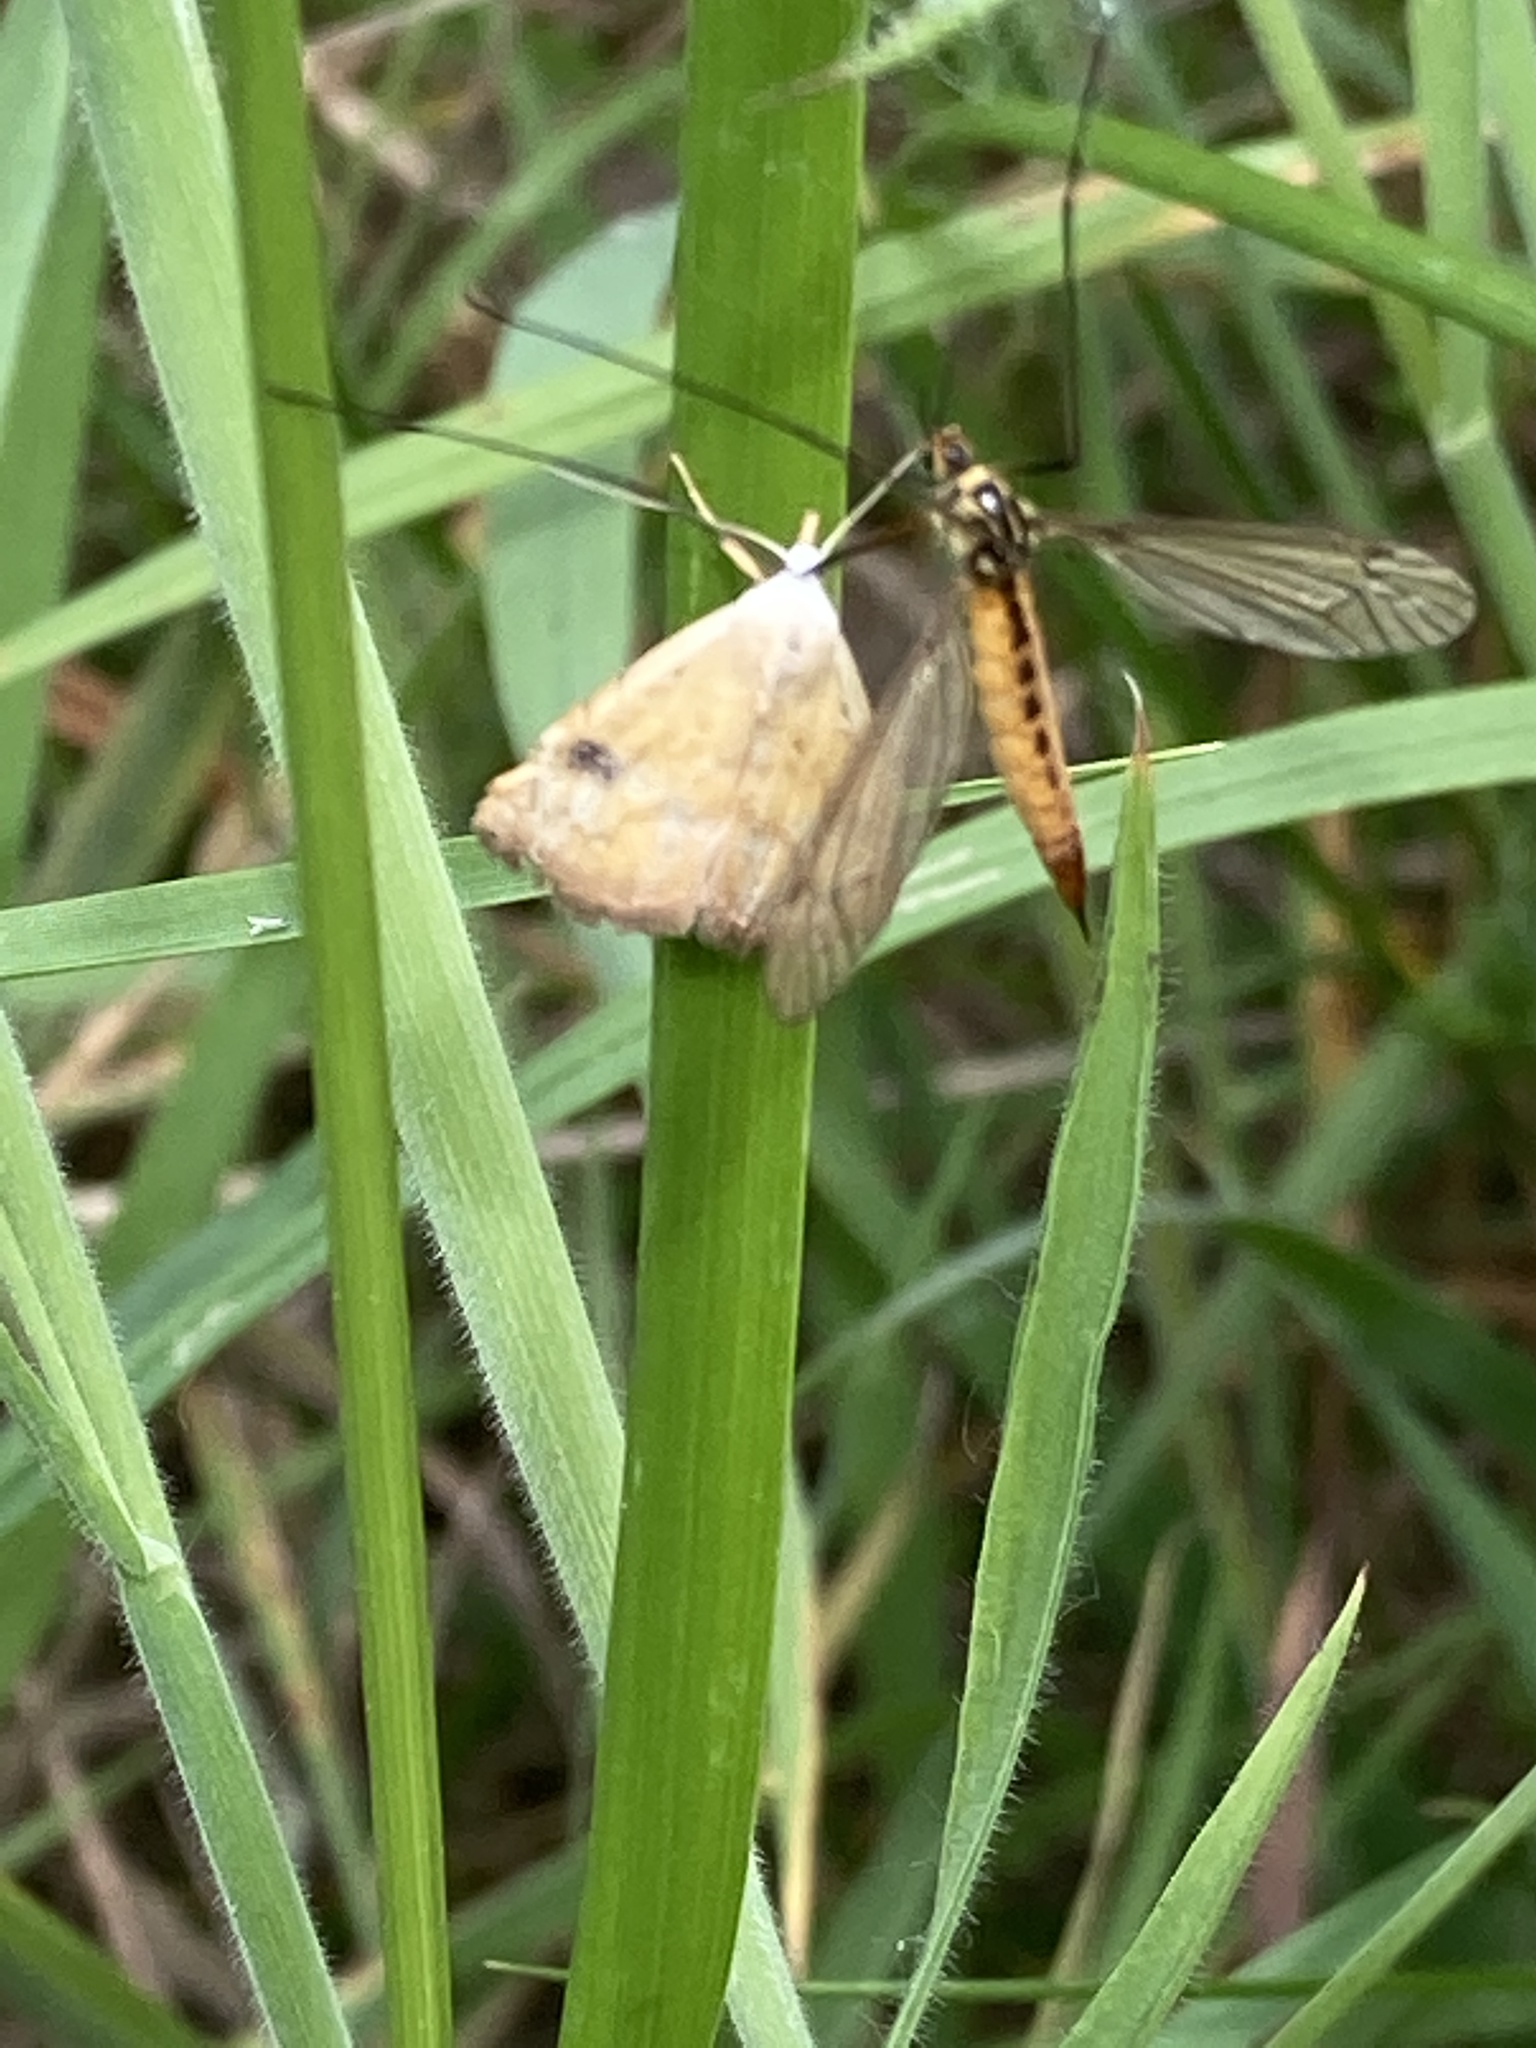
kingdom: Animalia
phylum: Arthropoda
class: Insecta
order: Lepidoptera
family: Erebidae
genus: Rivula
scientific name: Rivula sericealis
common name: Straw dot
